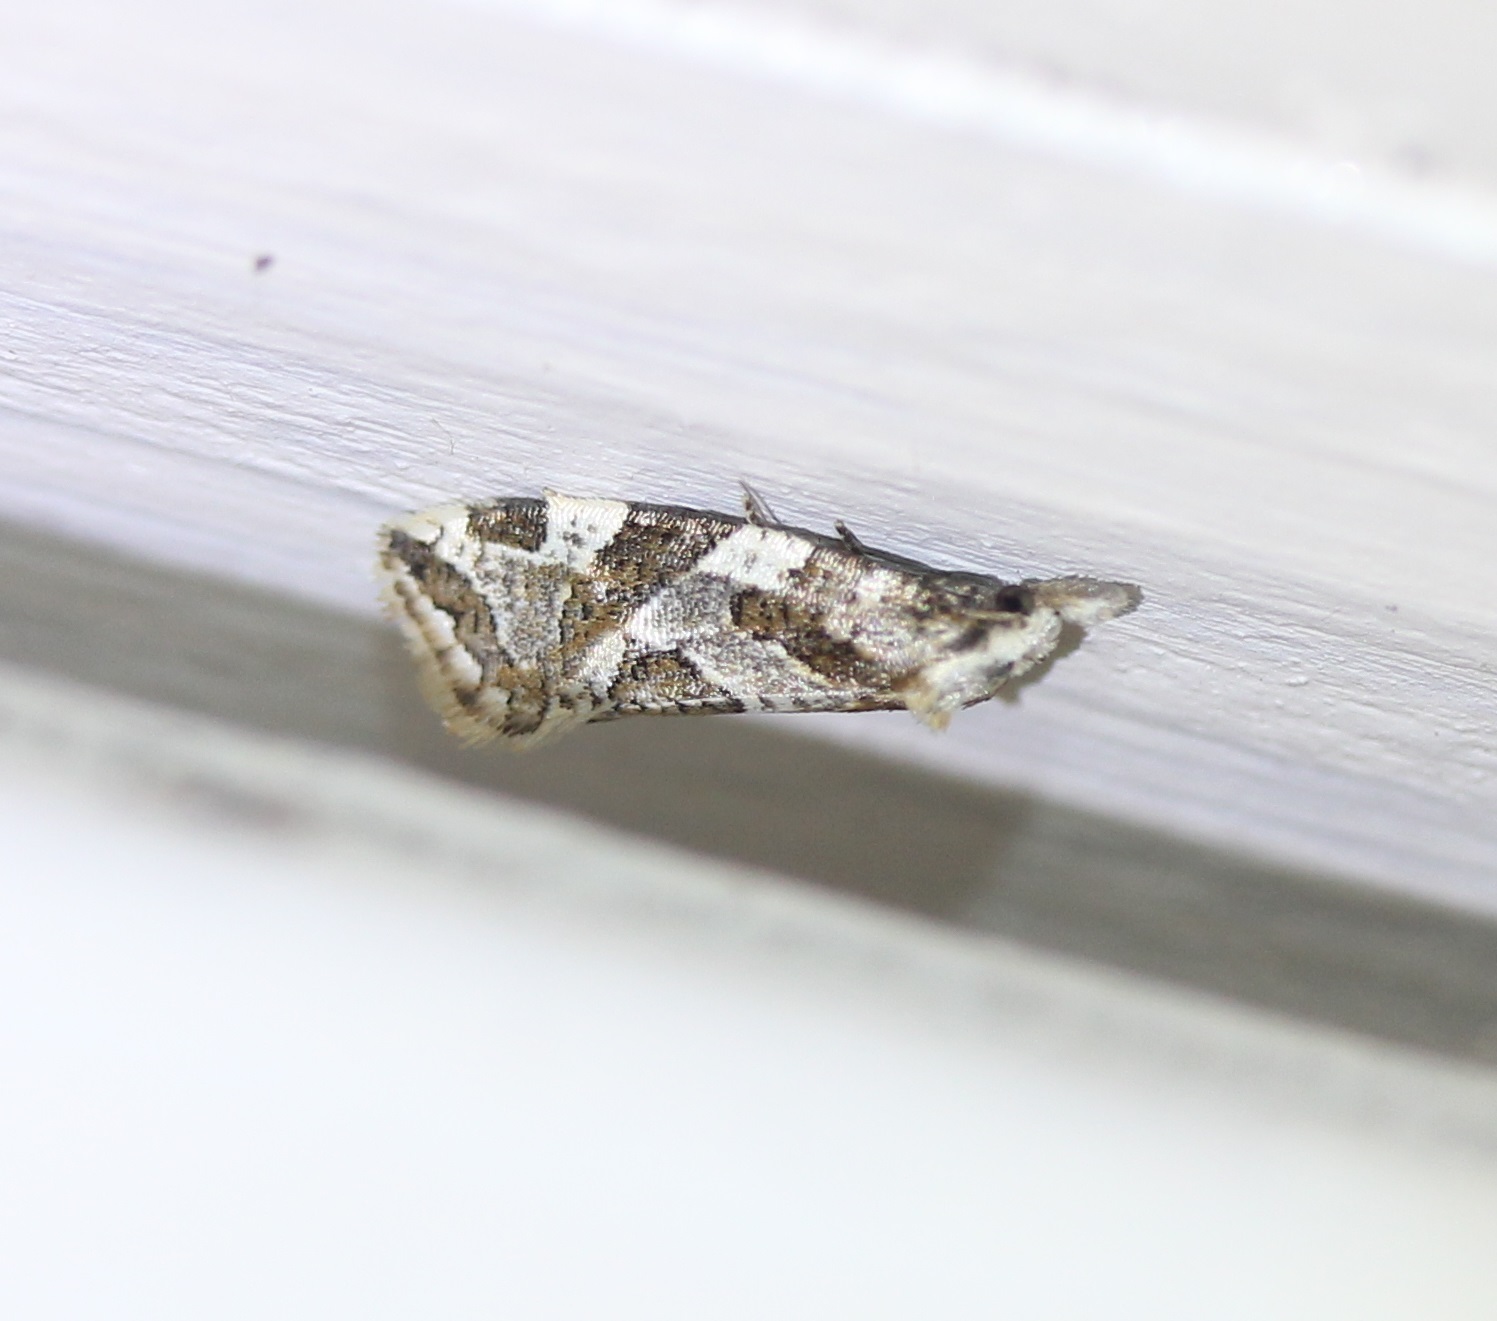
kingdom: Animalia
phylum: Arthropoda
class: Insecta
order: Lepidoptera
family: Tortricidae
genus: Aethes
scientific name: Aethes sexdentata
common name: Six-toothed aethes
